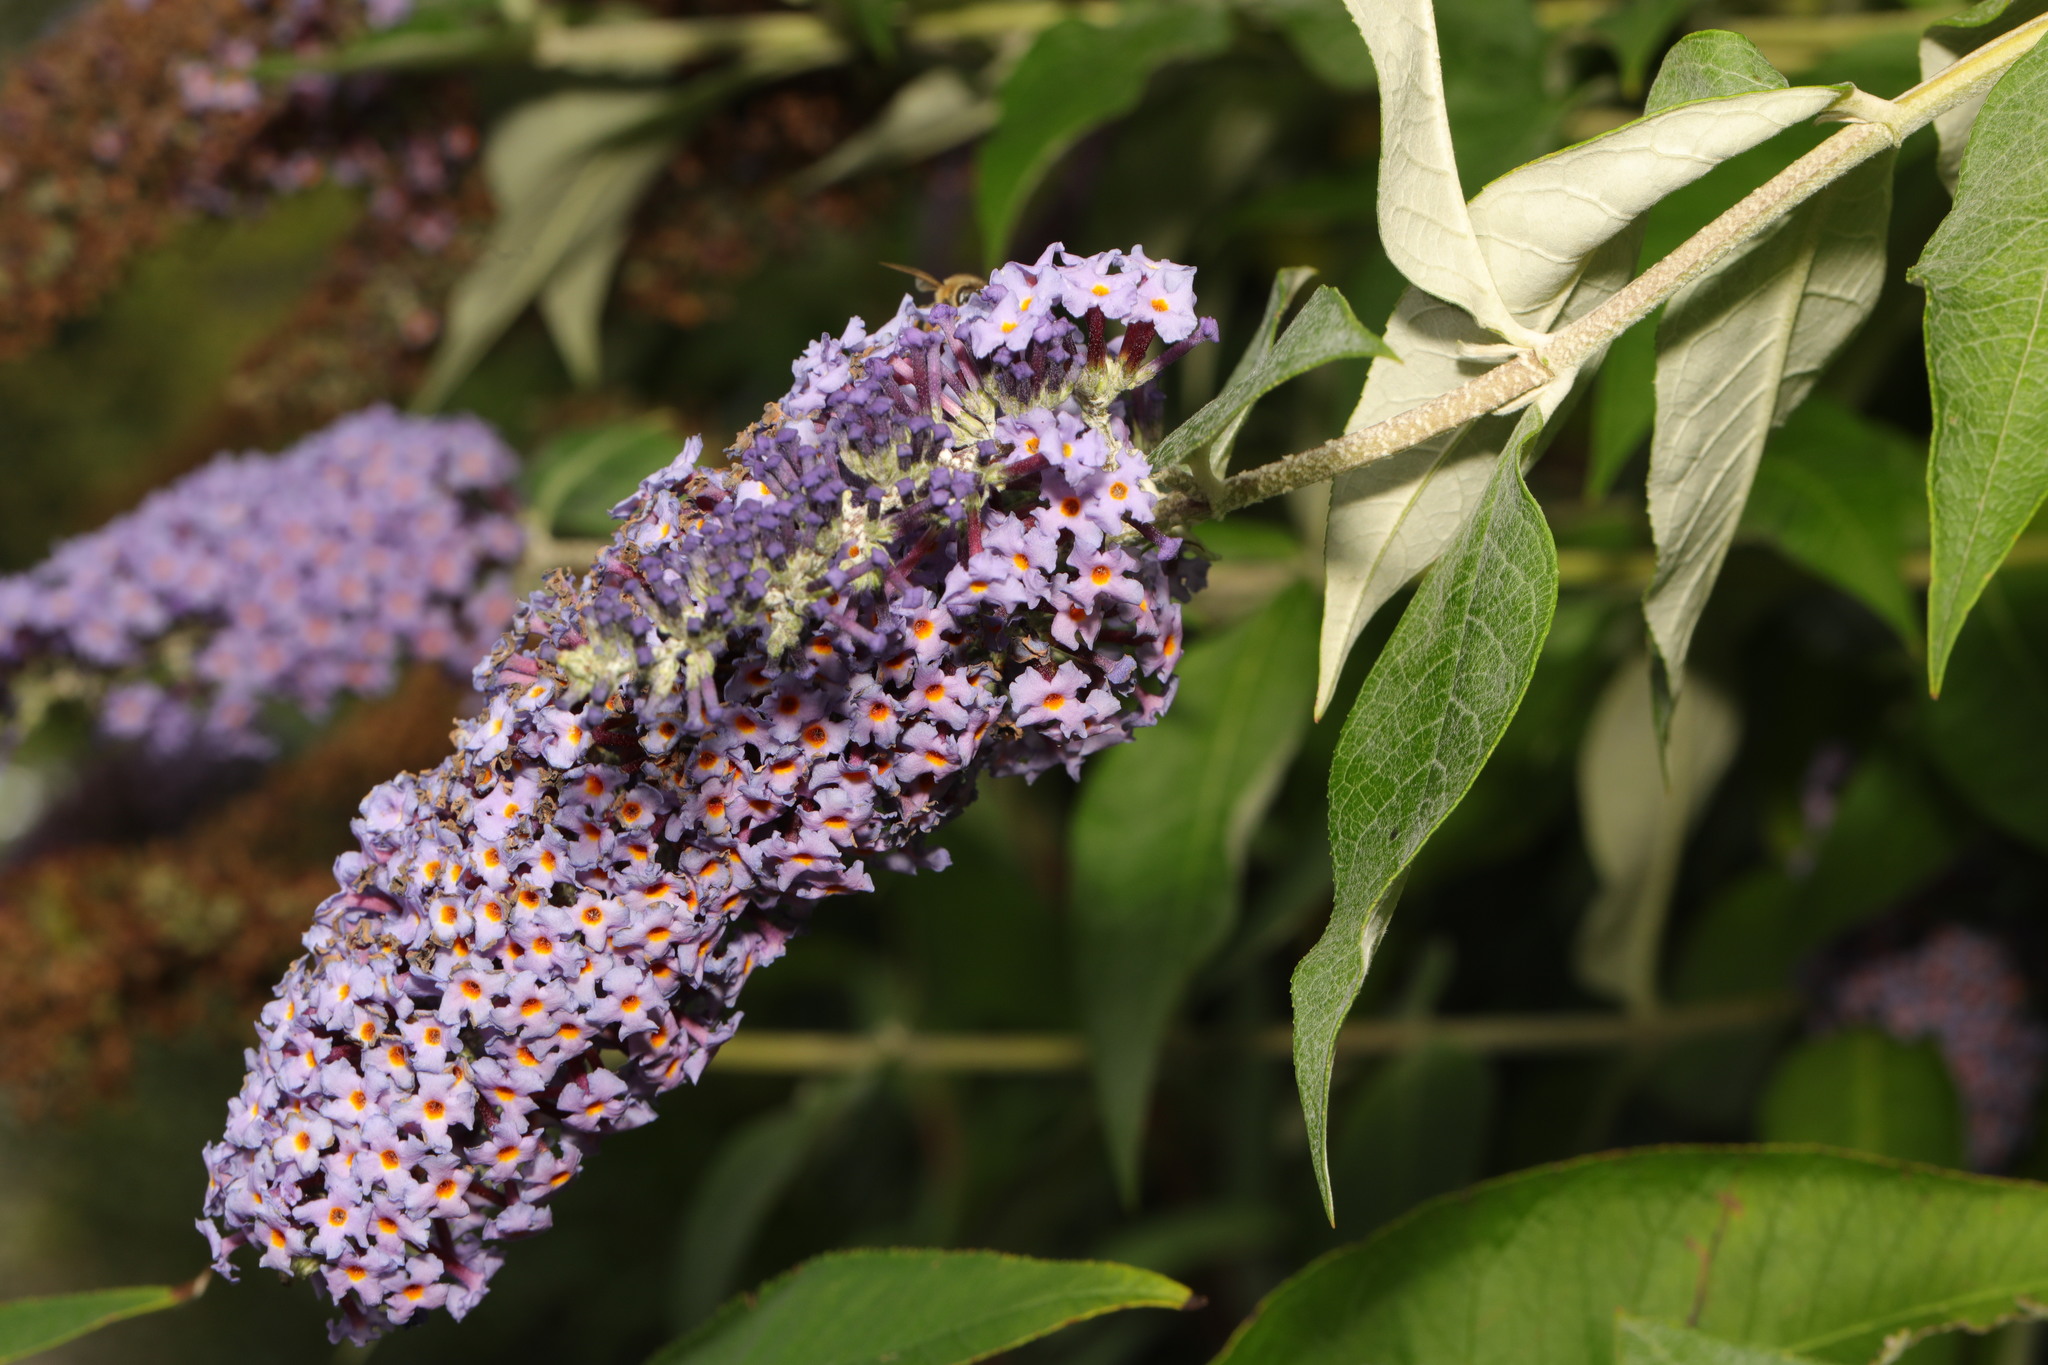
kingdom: Plantae
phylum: Tracheophyta
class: Magnoliopsida
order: Lamiales
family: Scrophulariaceae
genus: Buddleja
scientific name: Buddleja davidii
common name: Butterfly-bush
